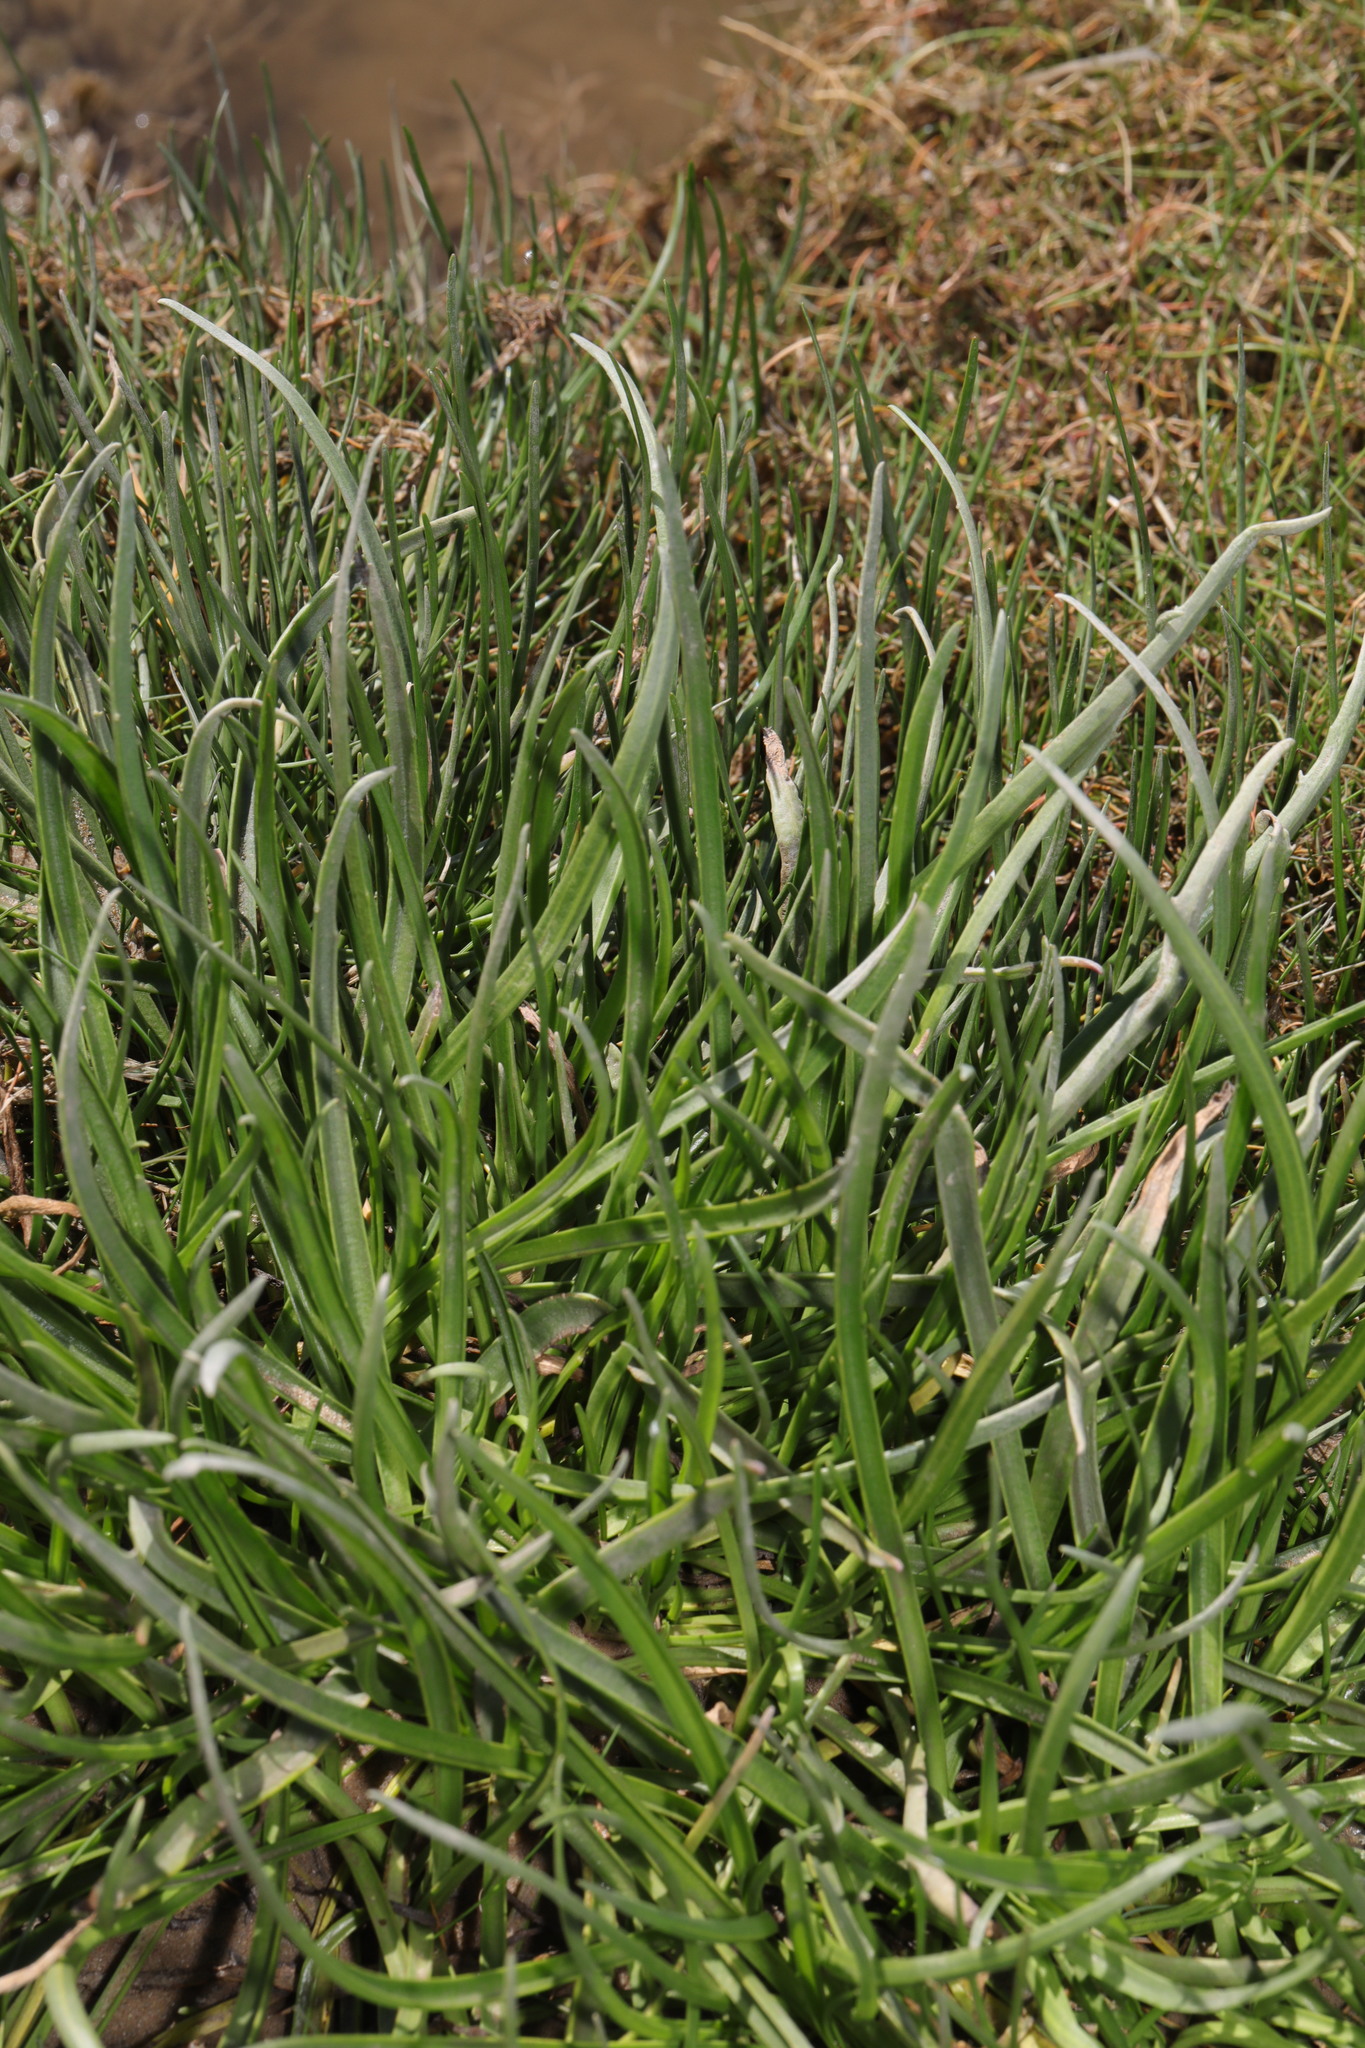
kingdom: Plantae
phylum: Tracheophyta
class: Magnoliopsida
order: Lamiales
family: Plantaginaceae
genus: Plantago
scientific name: Plantago maritima
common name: Sea plantain
